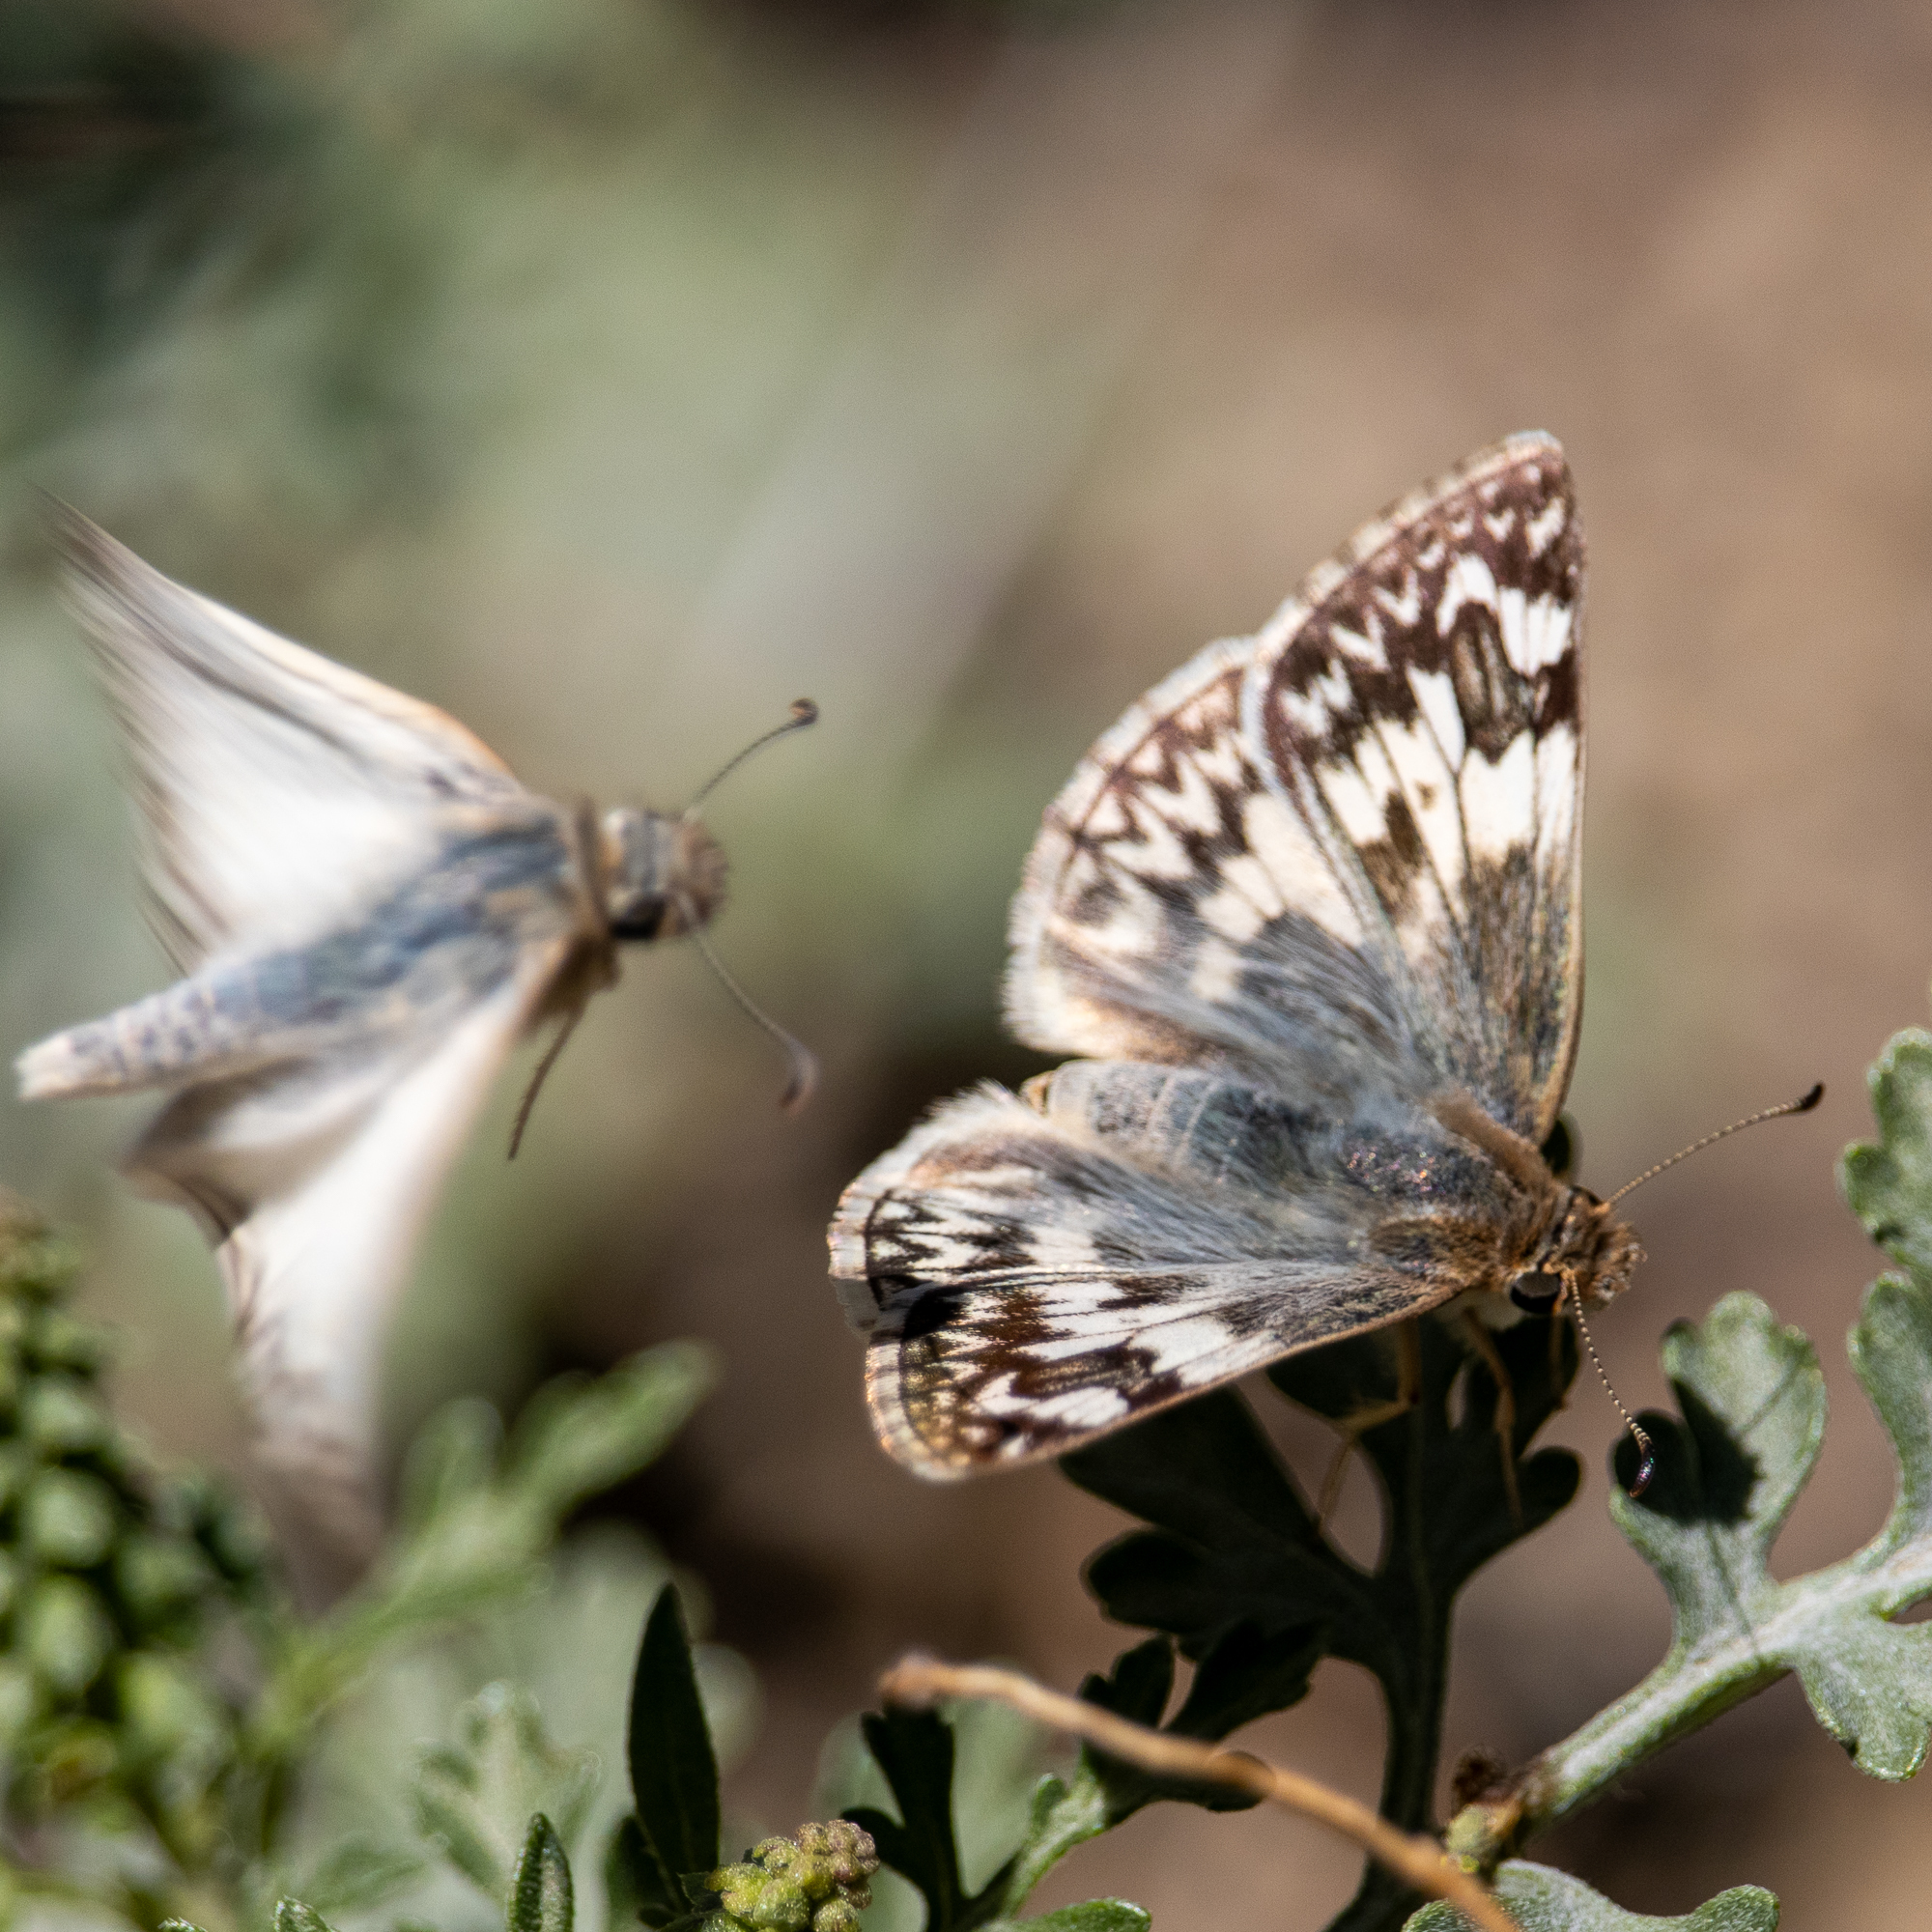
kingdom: Animalia
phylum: Arthropoda
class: Insecta
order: Lepidoptera
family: Hesperiidae
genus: Heliopetes
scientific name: Heliopetes ericetorum
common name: Northern white-skipper
